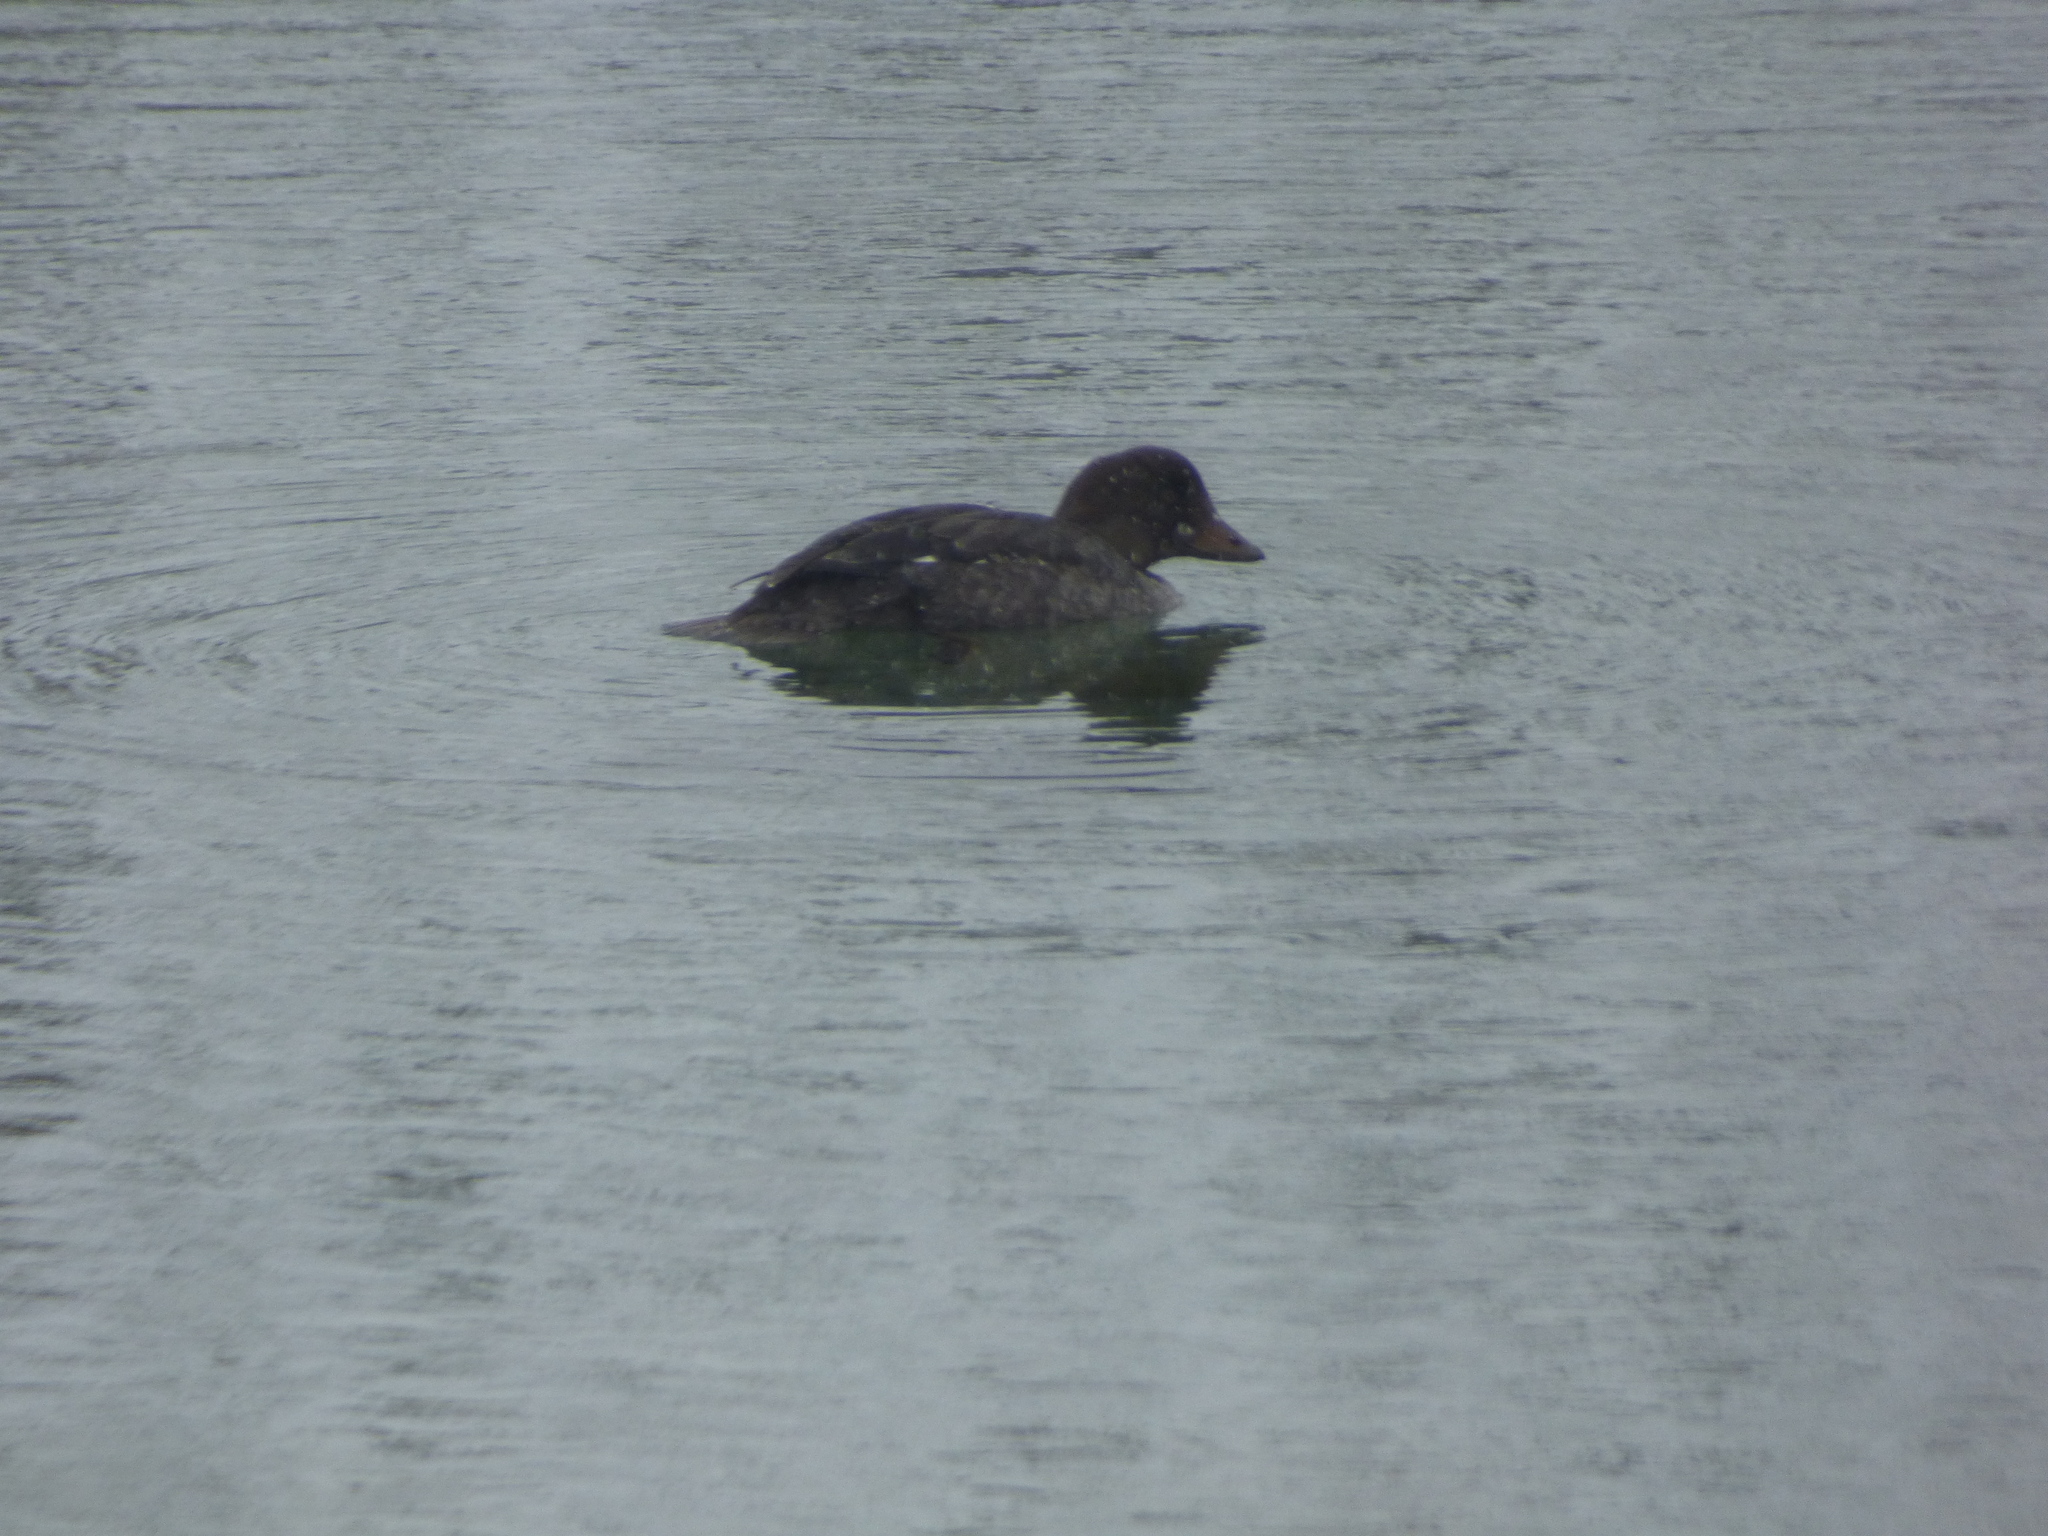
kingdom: Animalia
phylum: Chordata
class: Aves
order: Anseriformes
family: Anatidae
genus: Bucephala
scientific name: Bucephala clangula
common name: Common goldeneye
